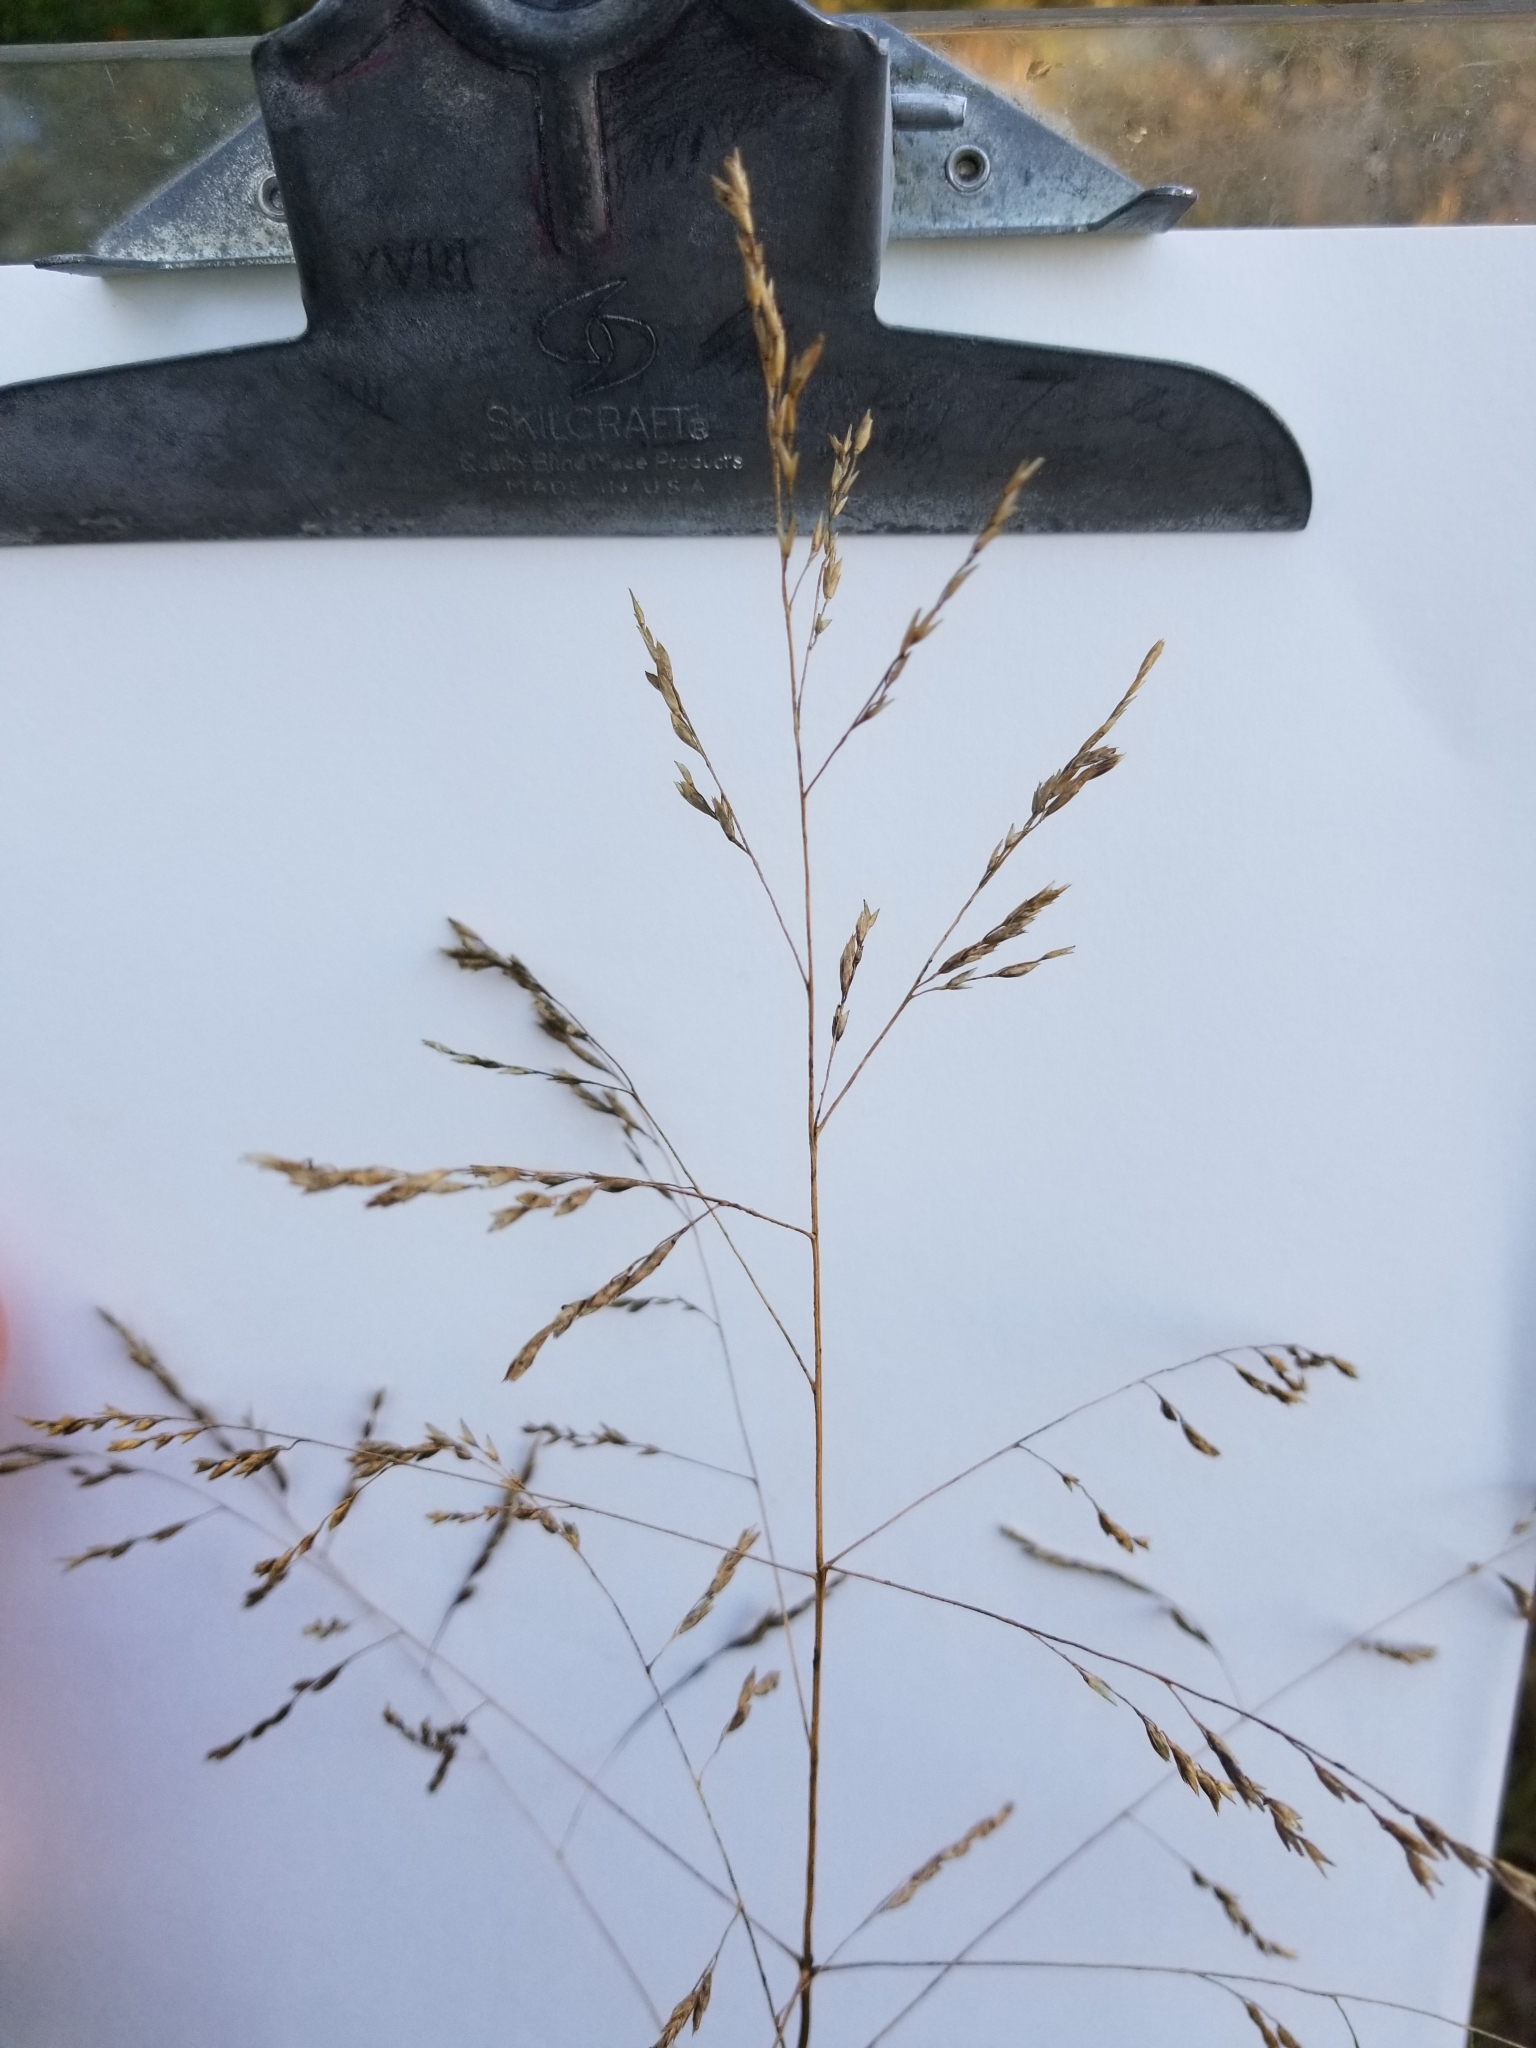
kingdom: Plantae
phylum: Tracheophyta
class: Liliopsida
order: Poales
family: Poaceae
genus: Tridens
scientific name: Tridens flavus
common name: Purpletop
